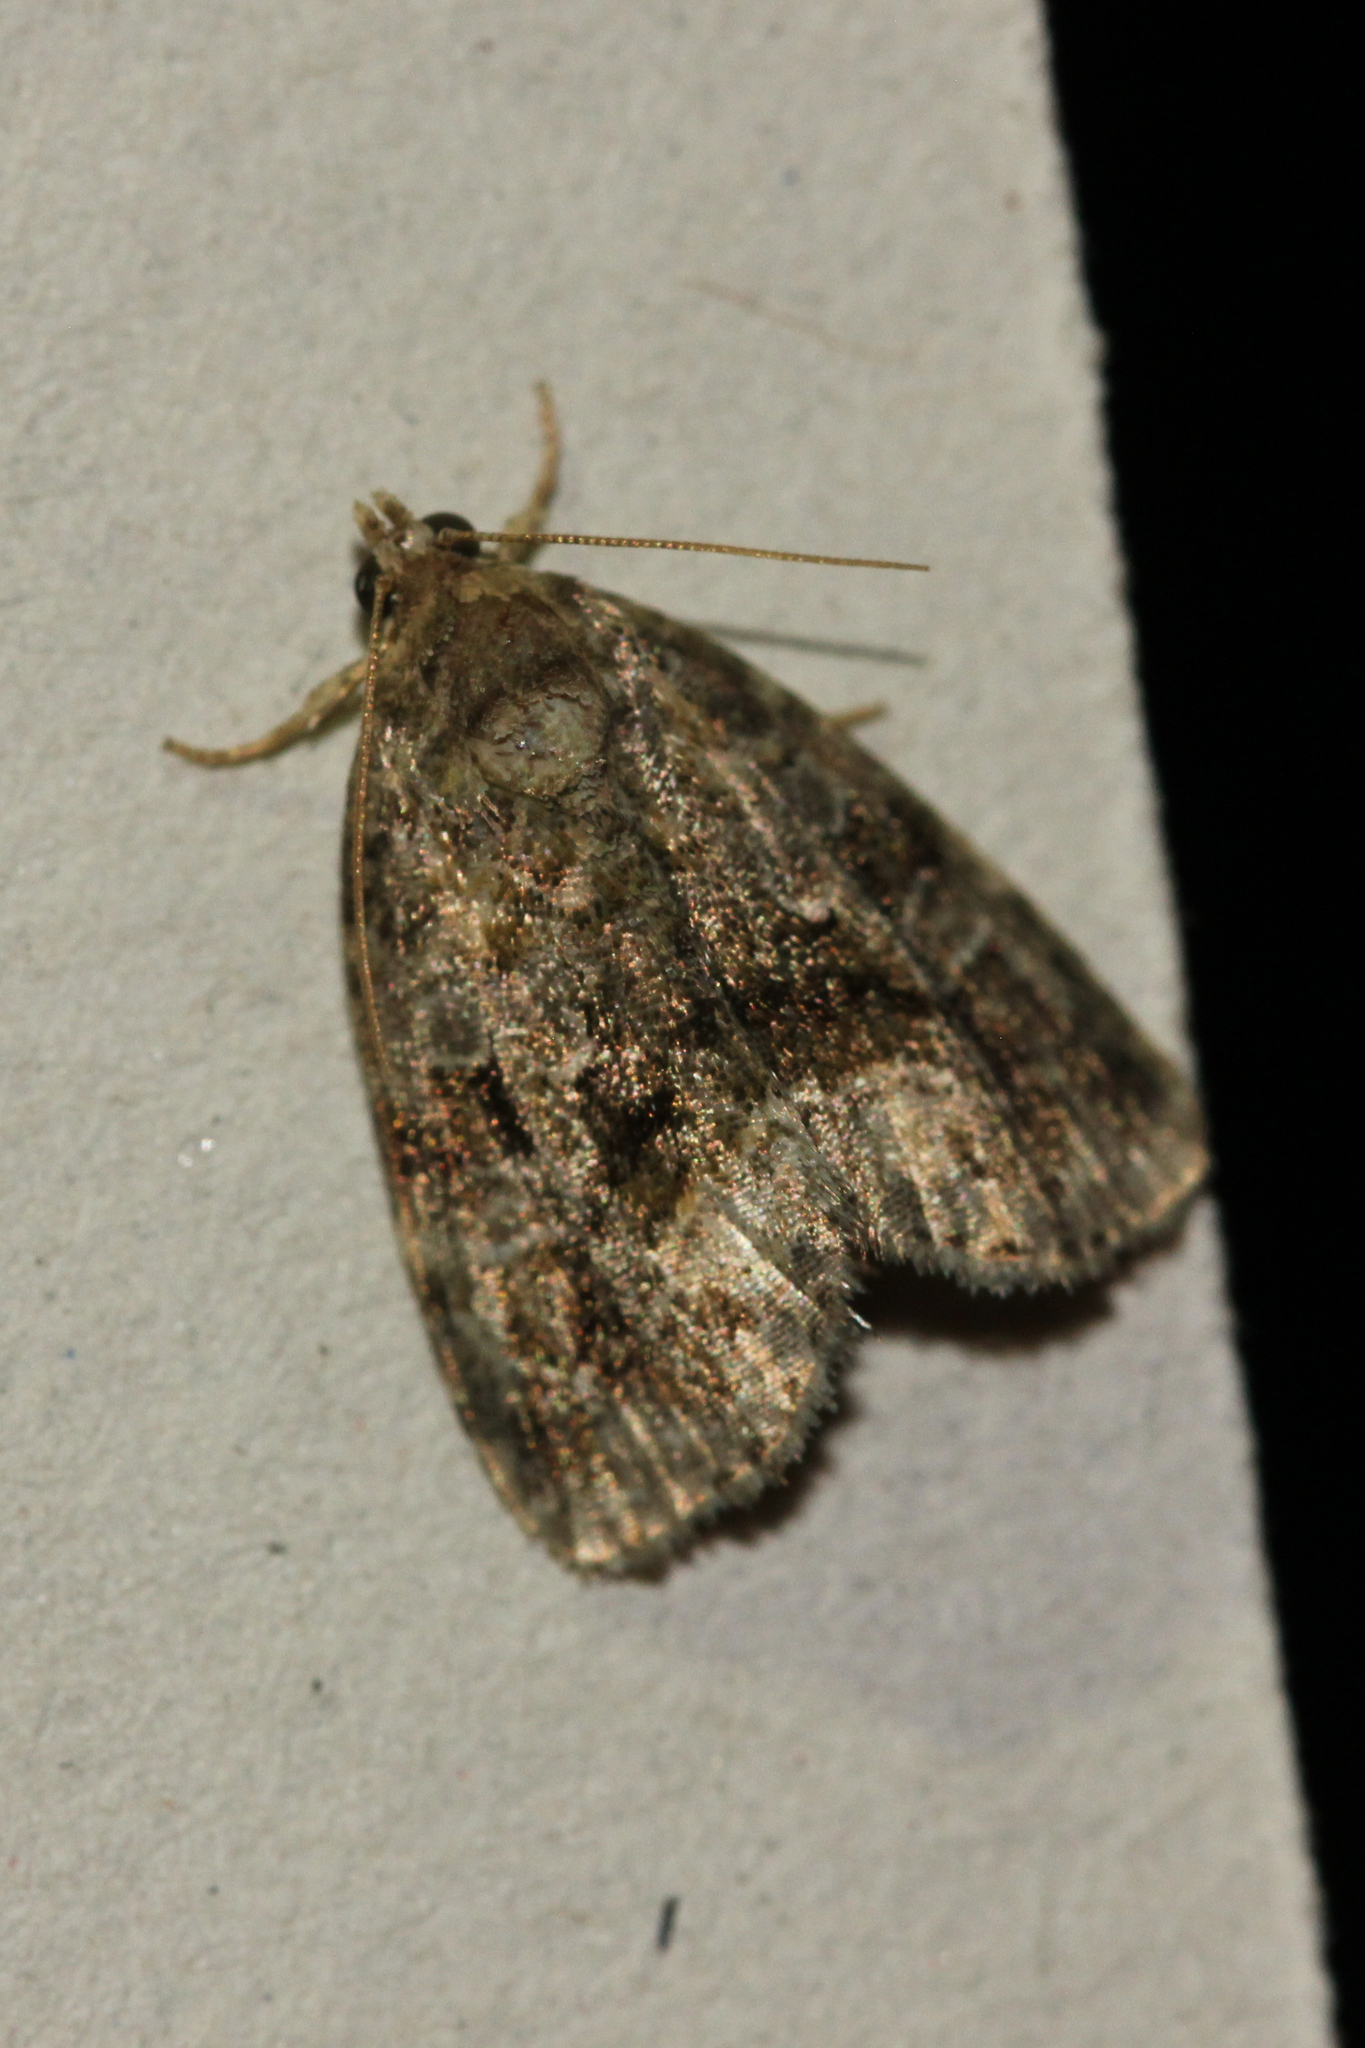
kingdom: Animalia
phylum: Arthropoda
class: Insecta
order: Lepidoptera
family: Noctuidae
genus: Protodeltote
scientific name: Protodeltote muscosula
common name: Large mossy glyph
